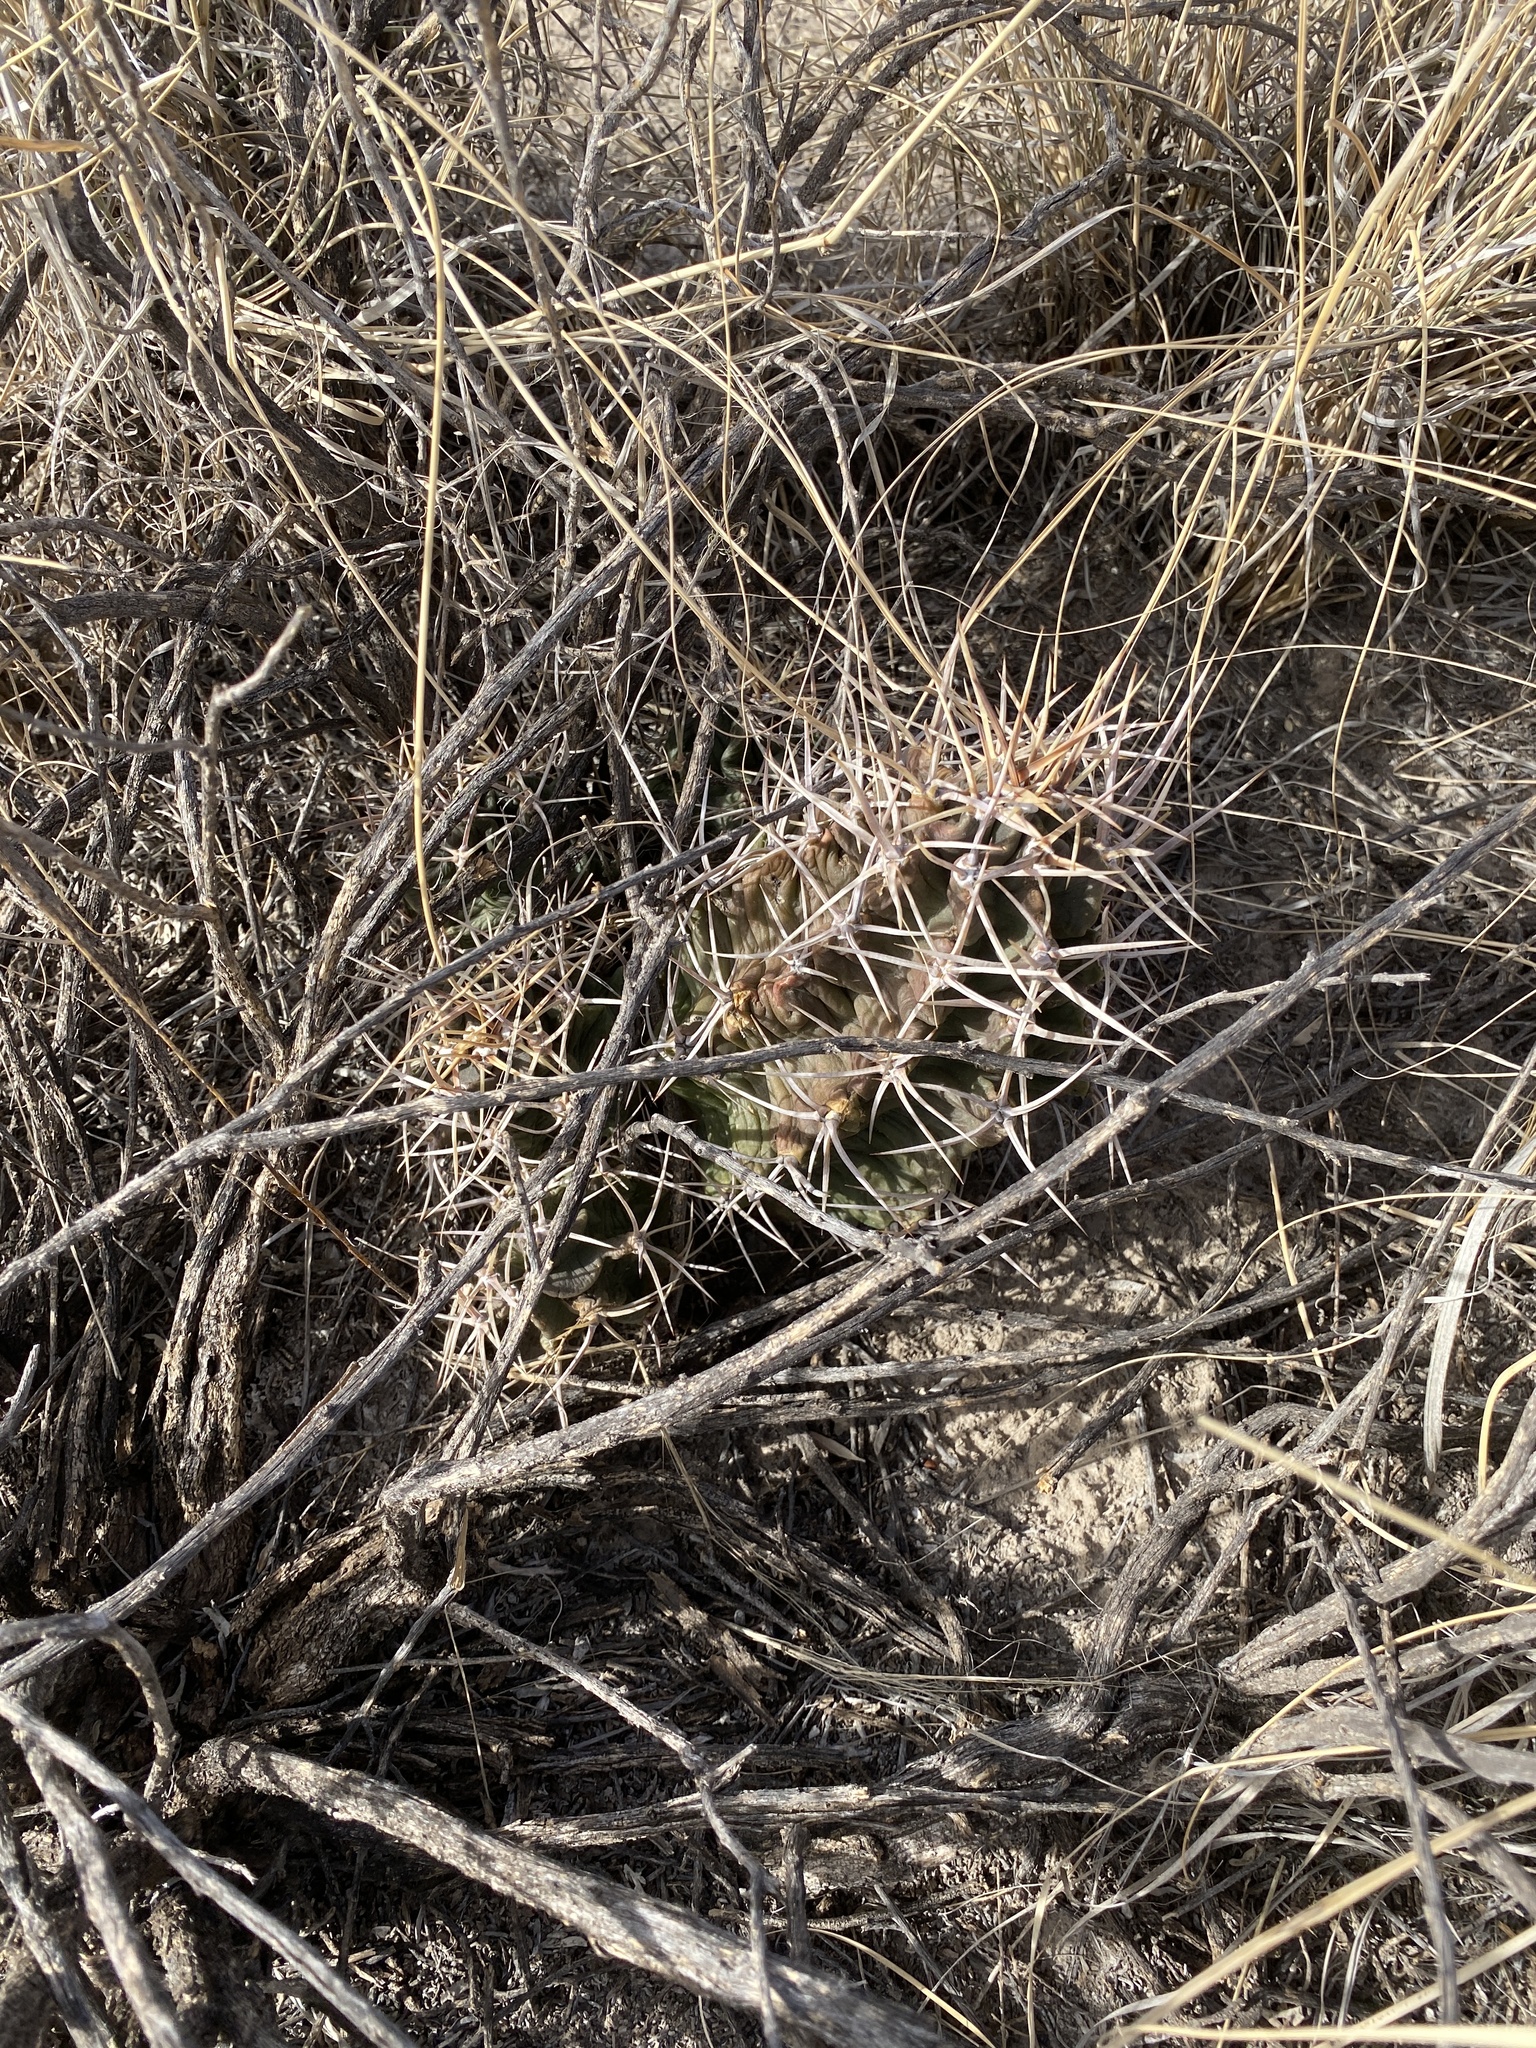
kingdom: Plantae
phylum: Tracheophyta
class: Magnoliopsida
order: Caryophyllales
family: Cactaceae
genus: Echinocereus
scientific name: Echinocereus triglochidiatus
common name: Claretcup hedgehog
